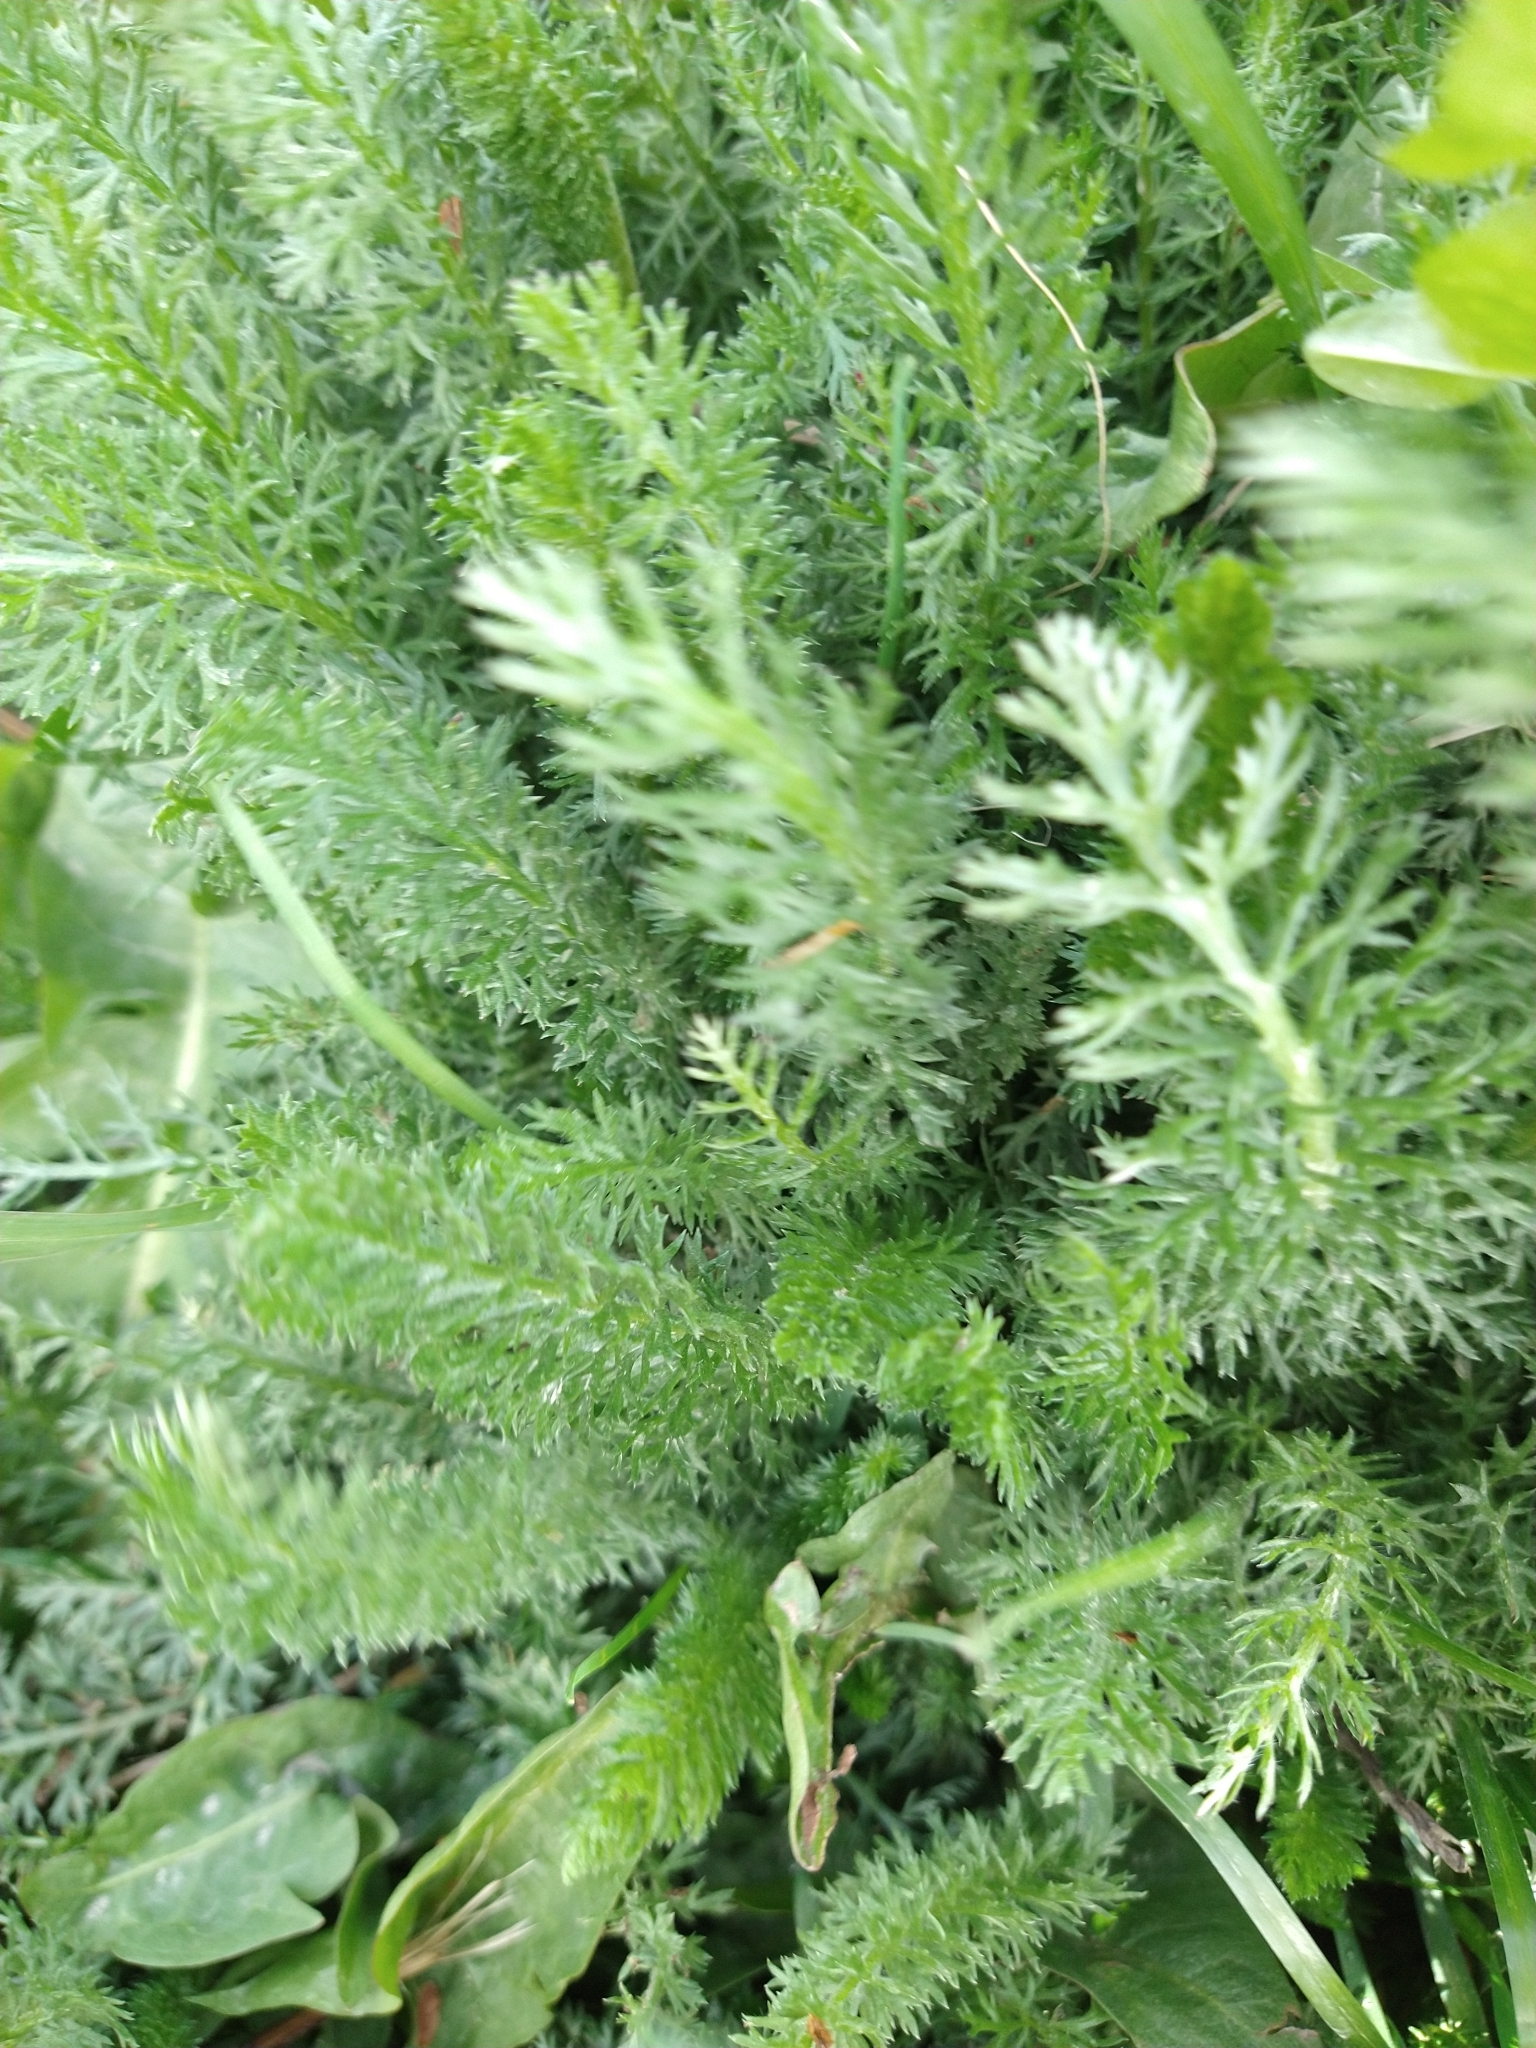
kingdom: Plantae
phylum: Tracheophyta
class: Magnoliopsida
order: Asterales
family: Asteraceae
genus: Achillea
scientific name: Achillea millefolium
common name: Yarrow
